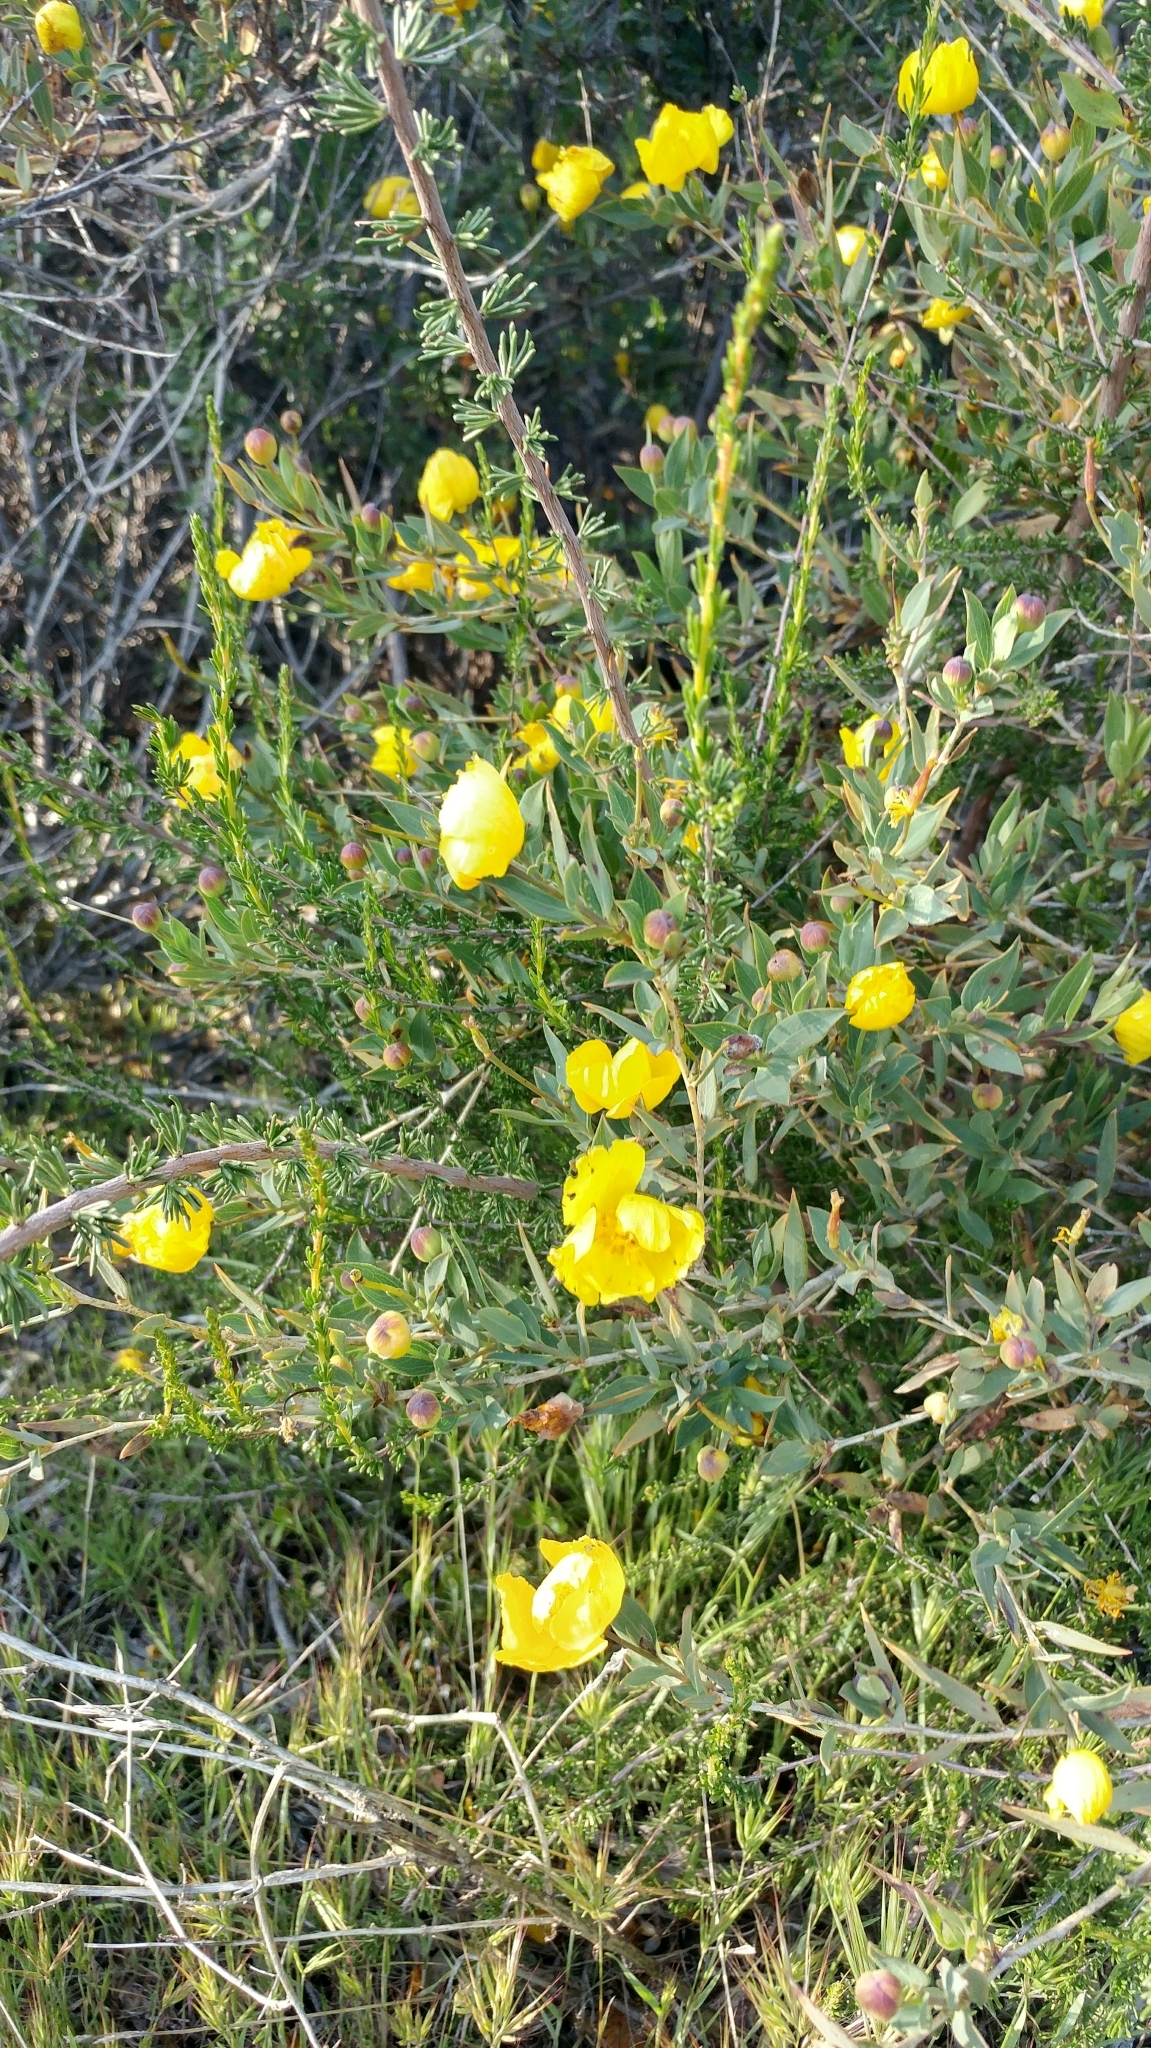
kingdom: Plantae
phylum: Tracheophyta
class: Magnoliopsida
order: Ranunculales
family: Papaveraceae
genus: Dendromecon
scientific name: Dendromecon rigida
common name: Tree poppy
